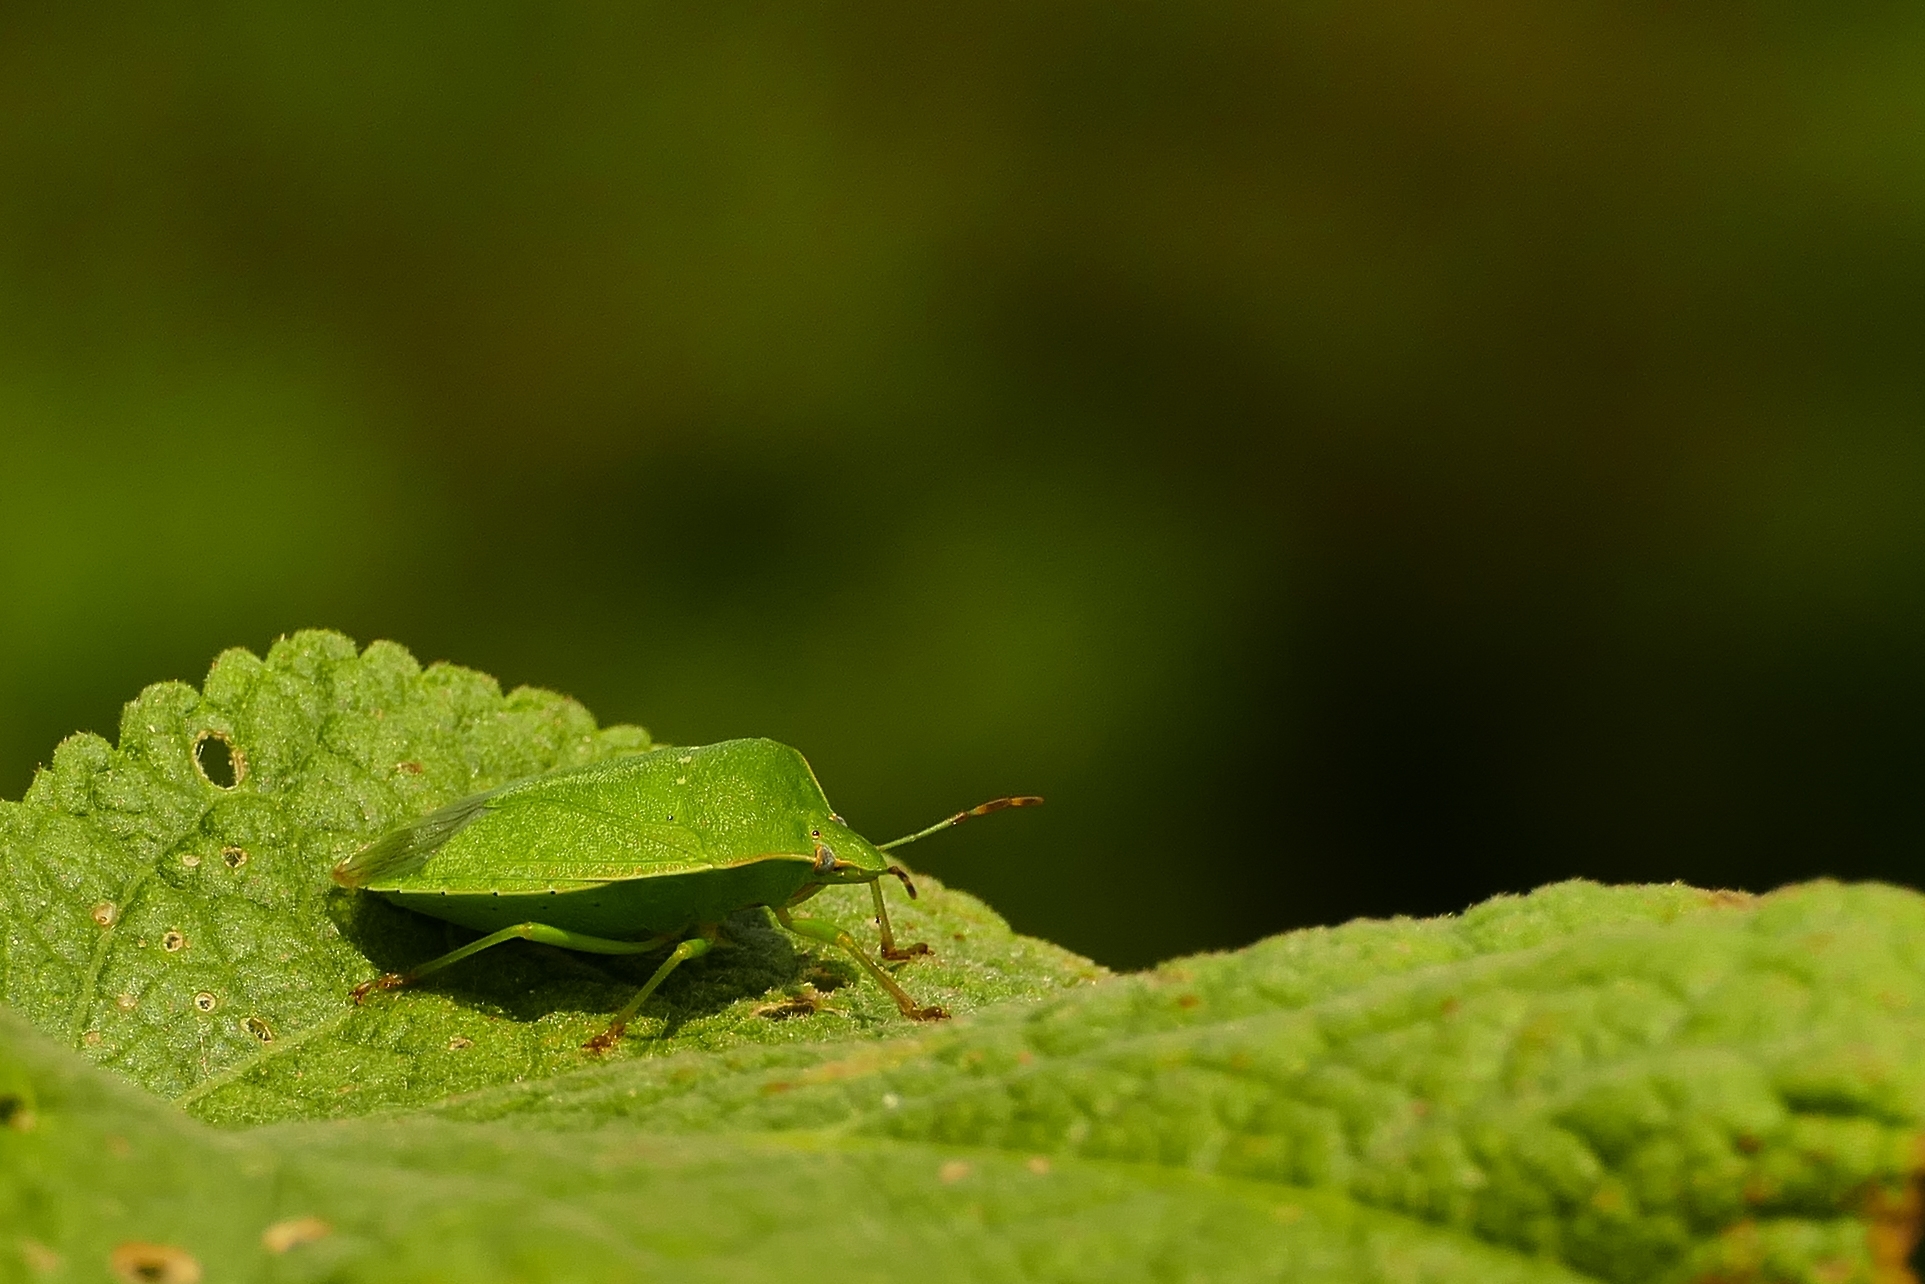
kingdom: Animalia
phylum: Arthropoda
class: Insecta
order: Hemiptera
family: Pentatomidae
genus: Nezara
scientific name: Nezara viridula
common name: Southern green stink bug
